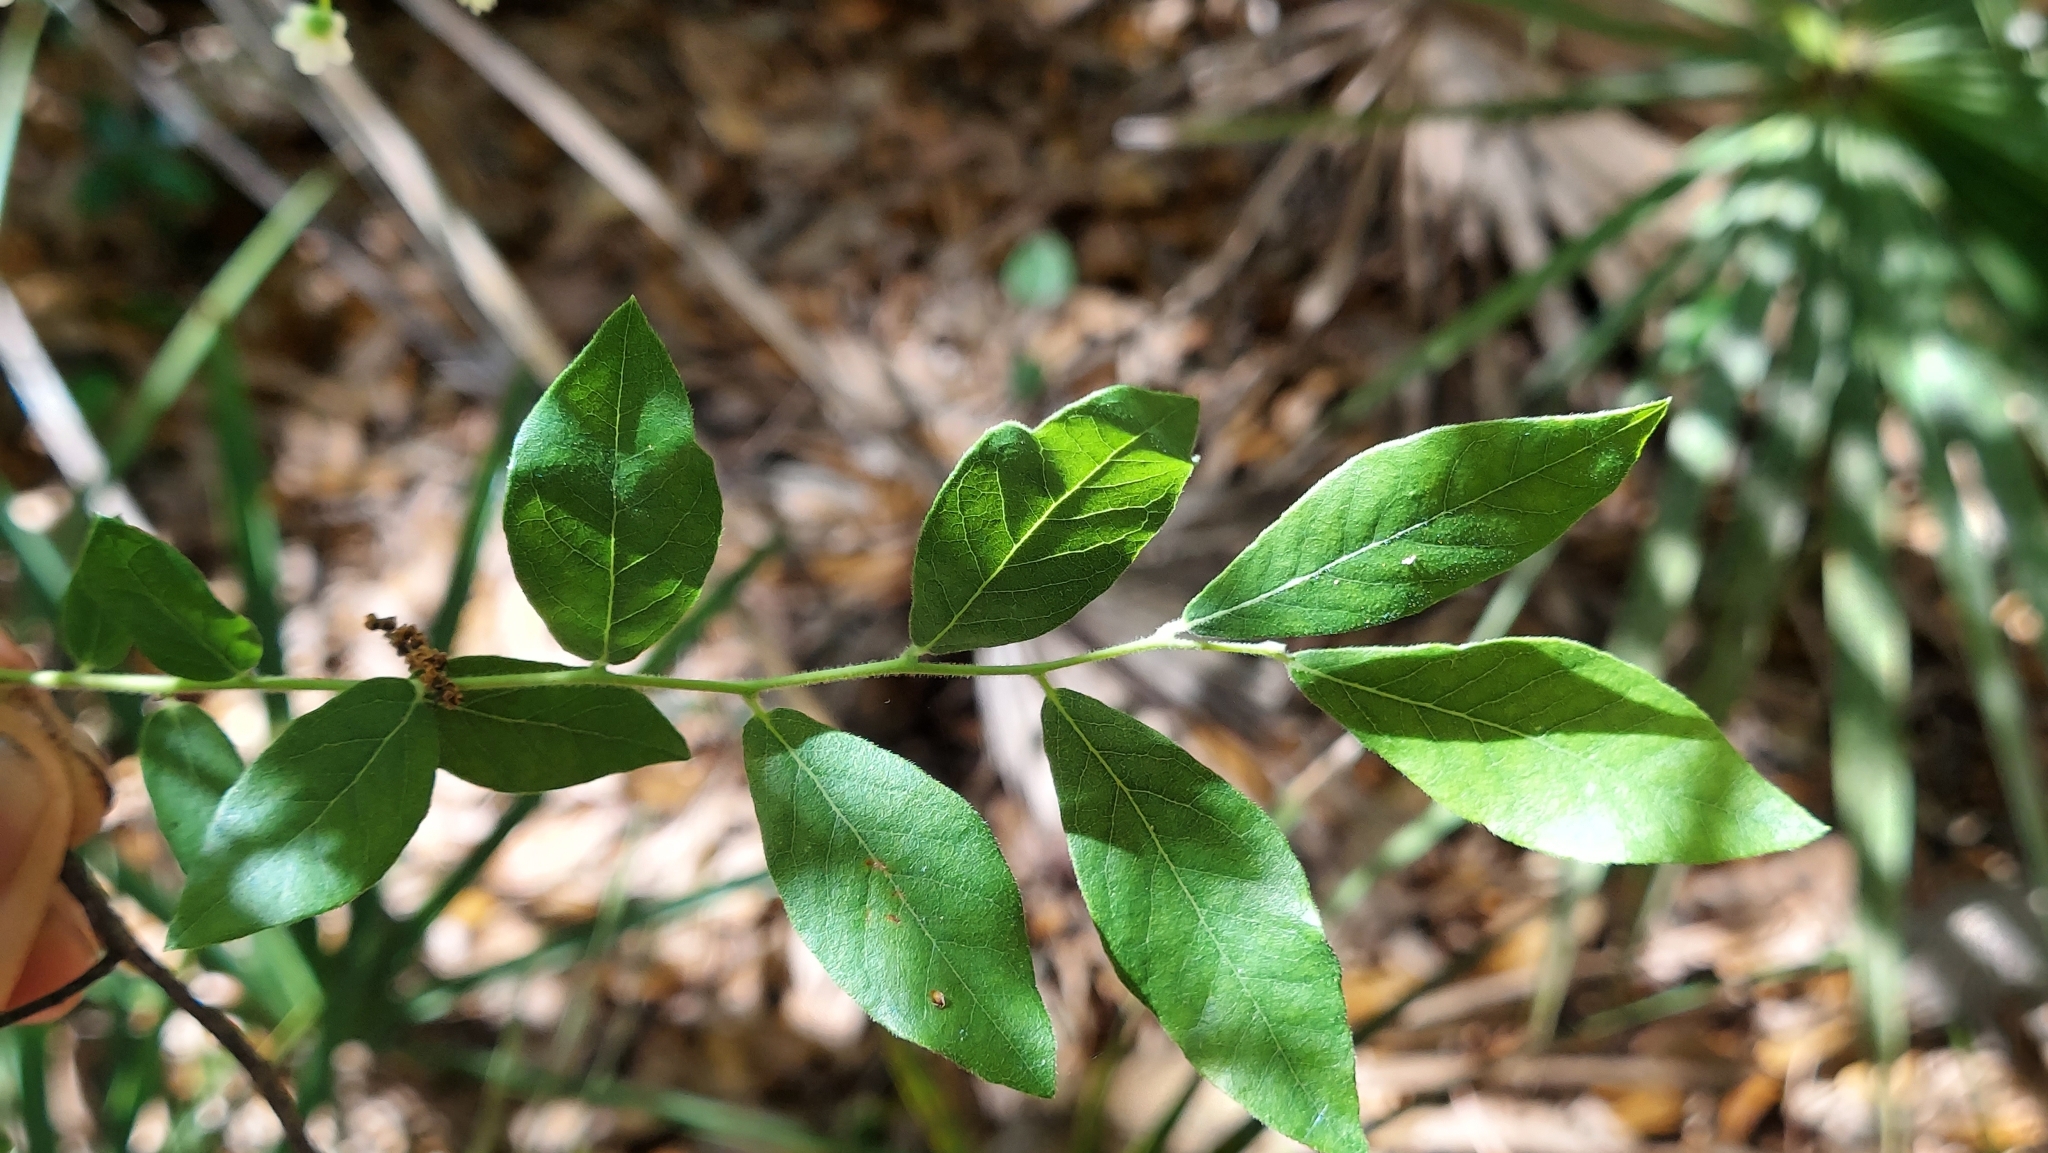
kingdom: Plantae
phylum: Tracheophyta
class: Magnoliopsida
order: Ericales
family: Ericaceae
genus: Vaccinium
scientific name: Vaccinium stamineum
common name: Deerberry
